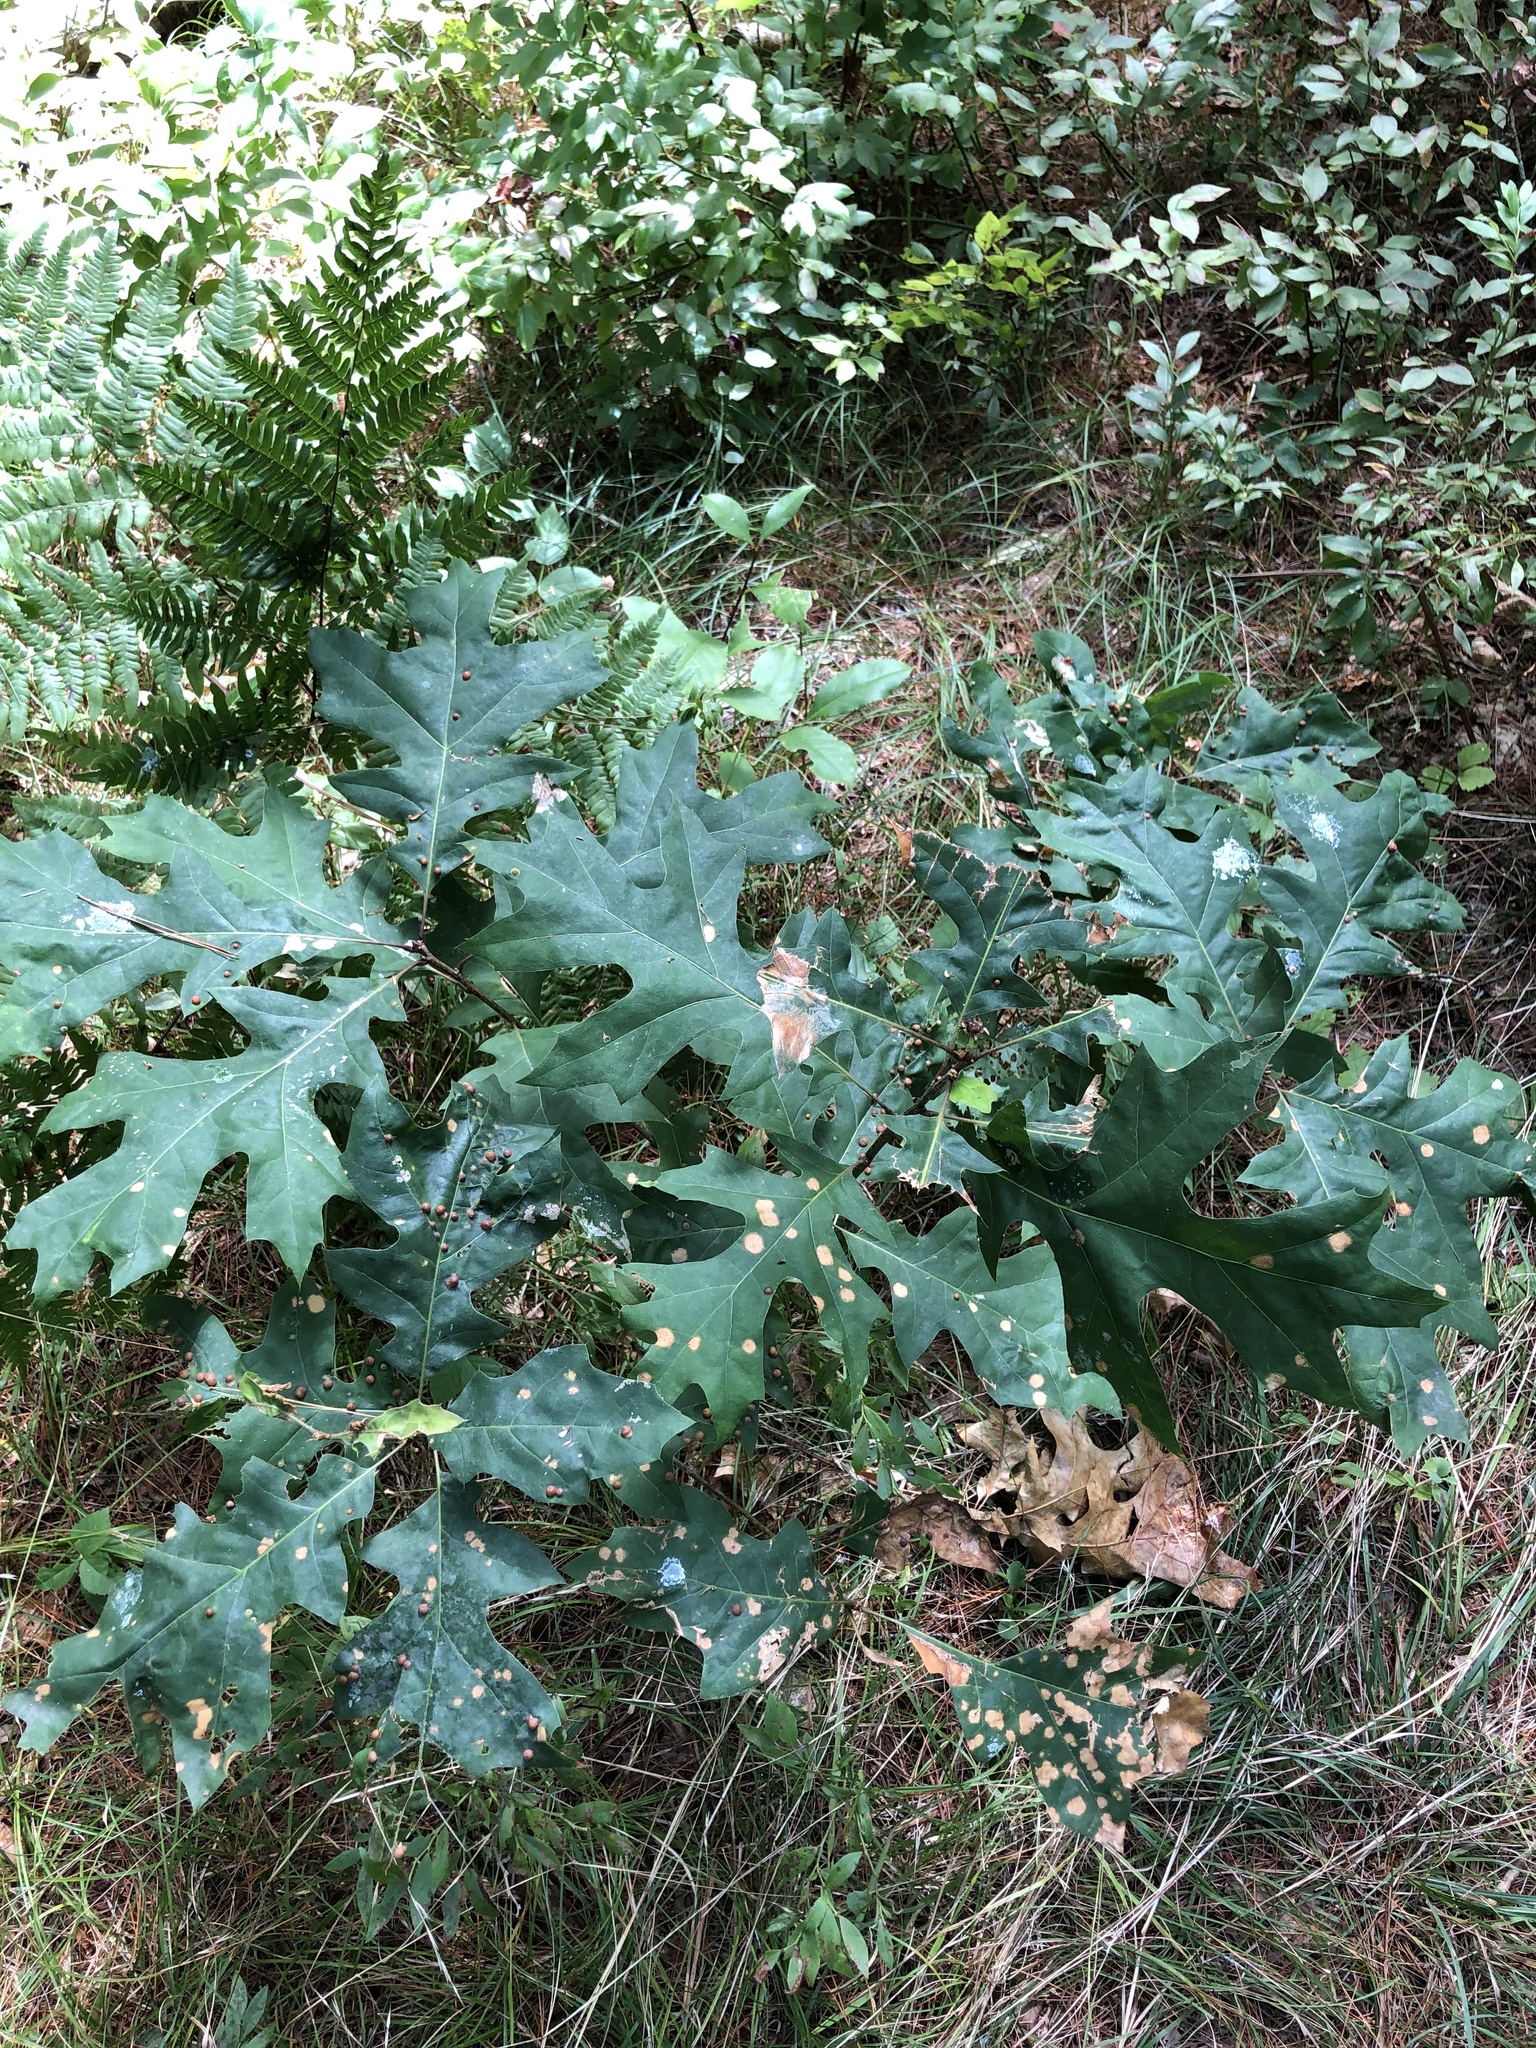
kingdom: Animalia
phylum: Arthropoda
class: Insecta
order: Diptera
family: Cecidomyiidae
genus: Polystepha
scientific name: Polystepha pilulae
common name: Oak leaf gall midge
